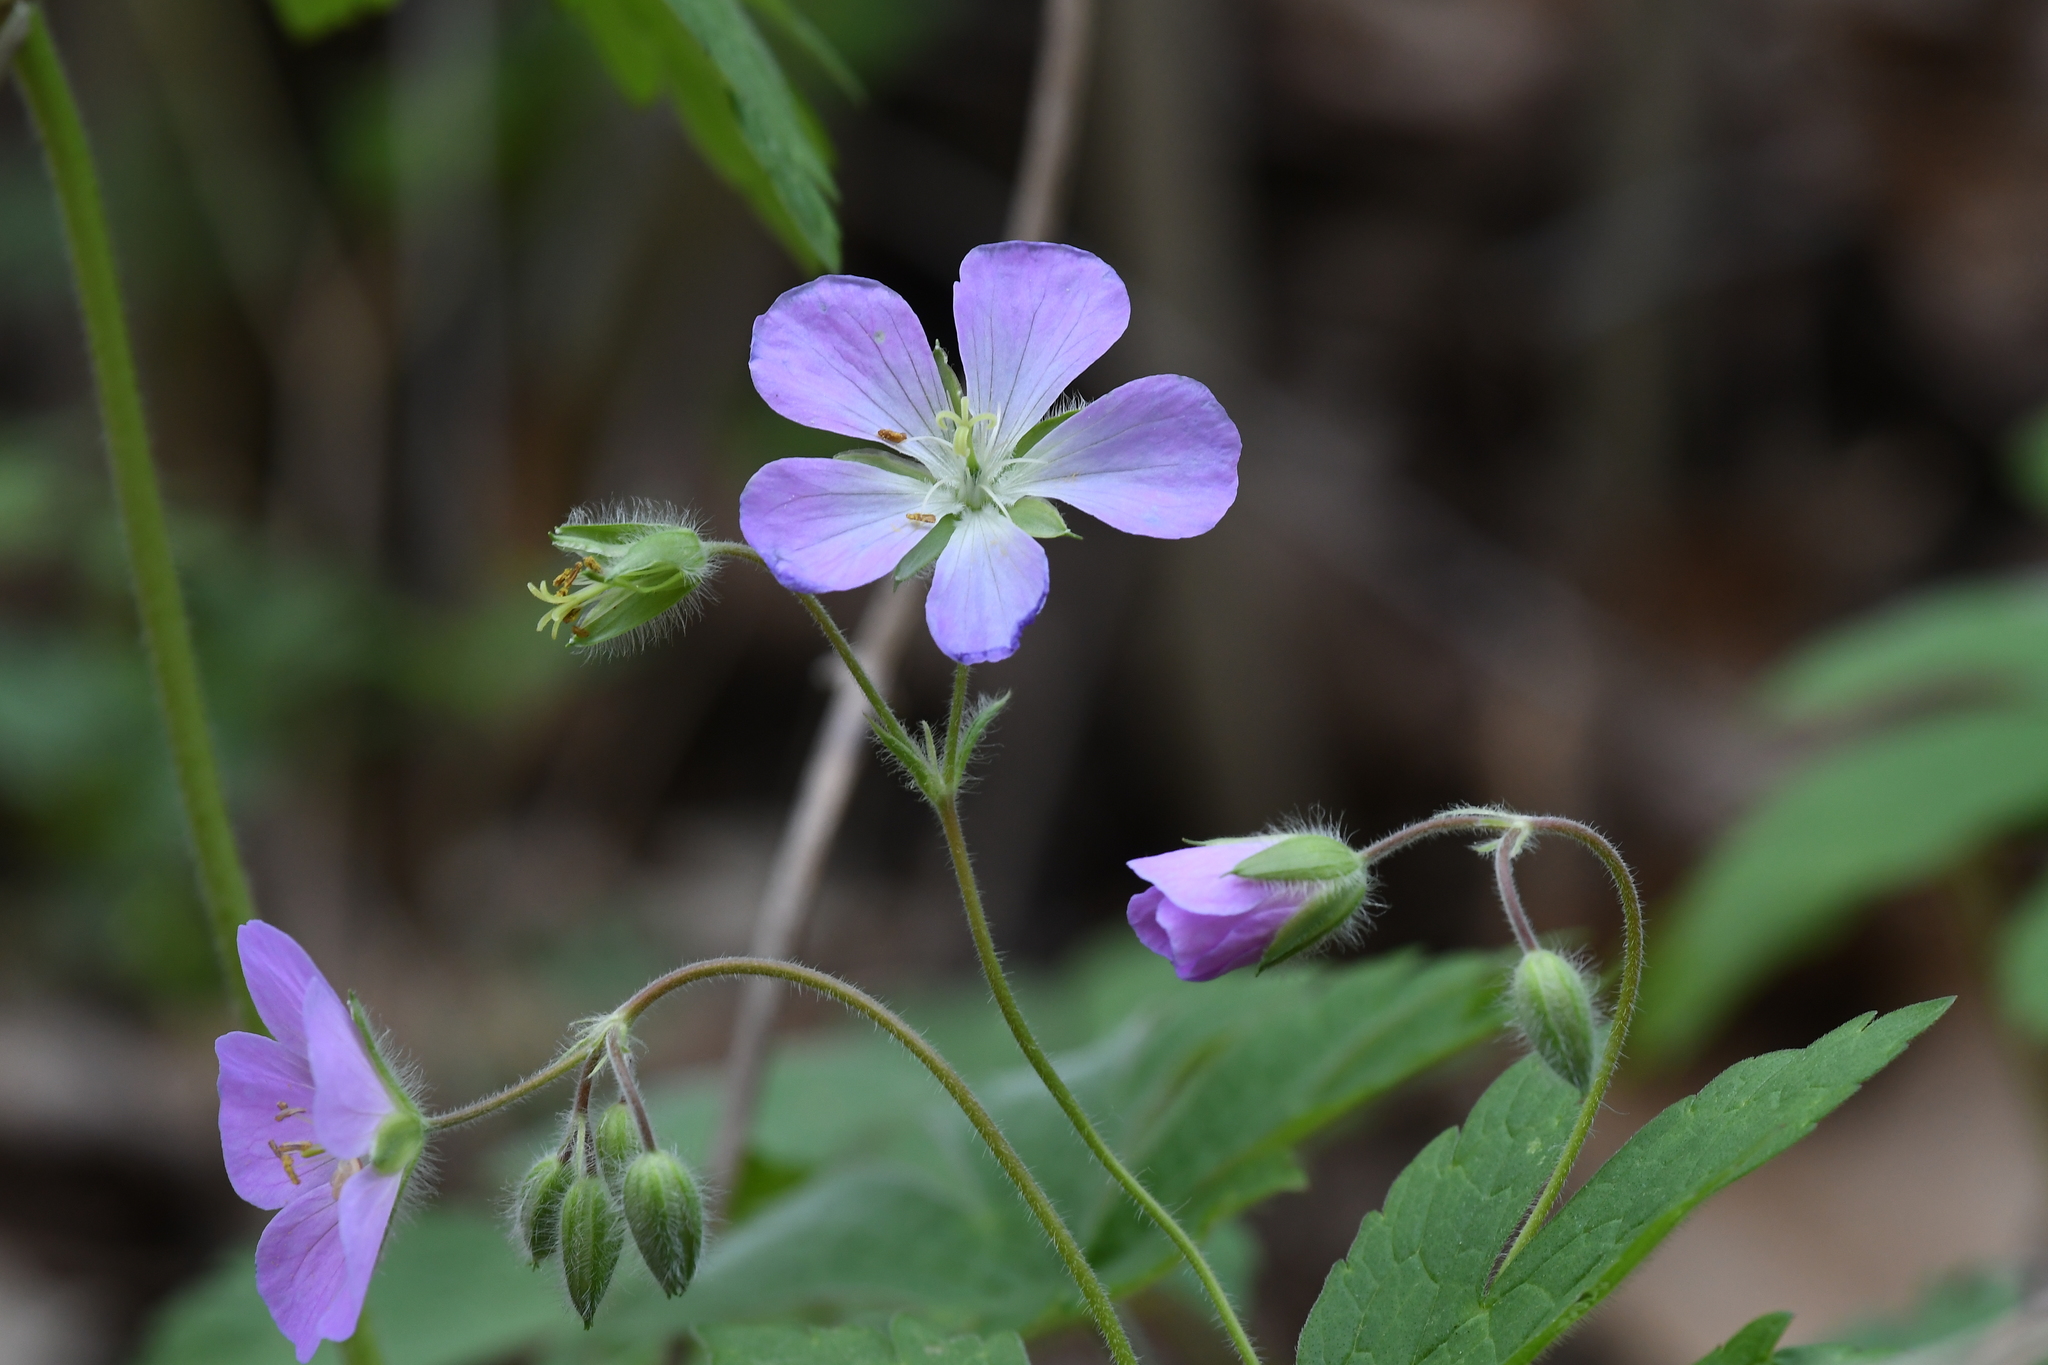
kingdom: Plantae
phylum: Tracheophyta
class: Magnoliopsida
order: Geraniales
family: Geraniaceae
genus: Geranium
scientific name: Geranium maculatum
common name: Spotted geranium
